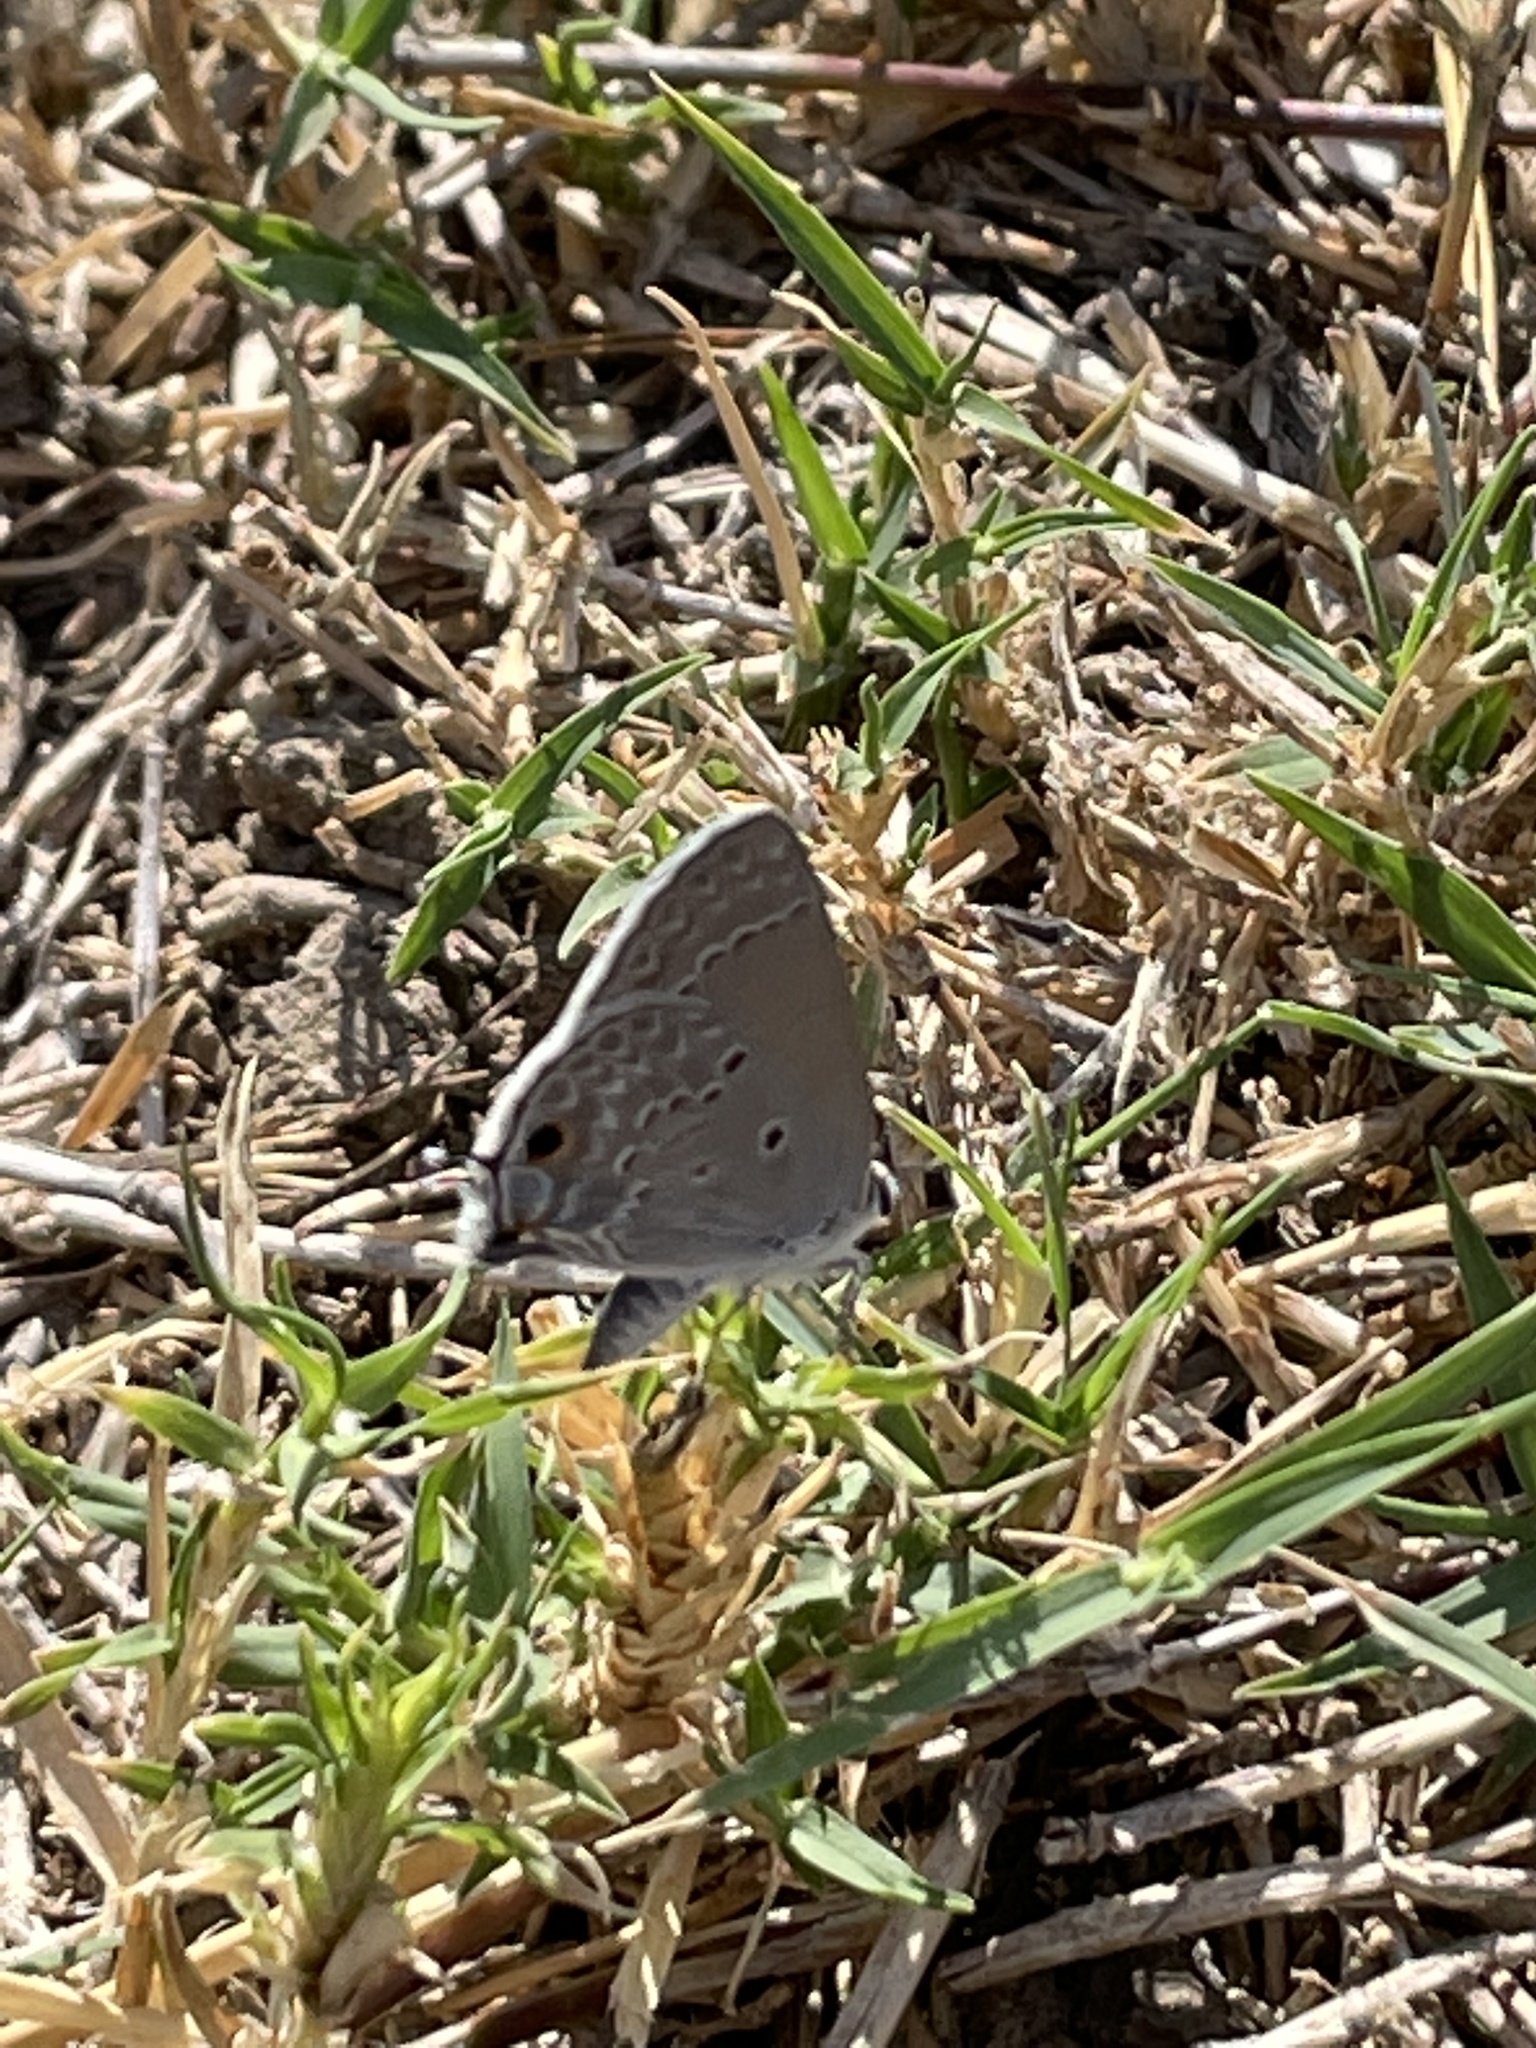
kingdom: Animalia
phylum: Arthropoda
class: Insecta
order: Lepidoptera
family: Lycaenidae
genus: Callicista
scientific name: Callicista columella
